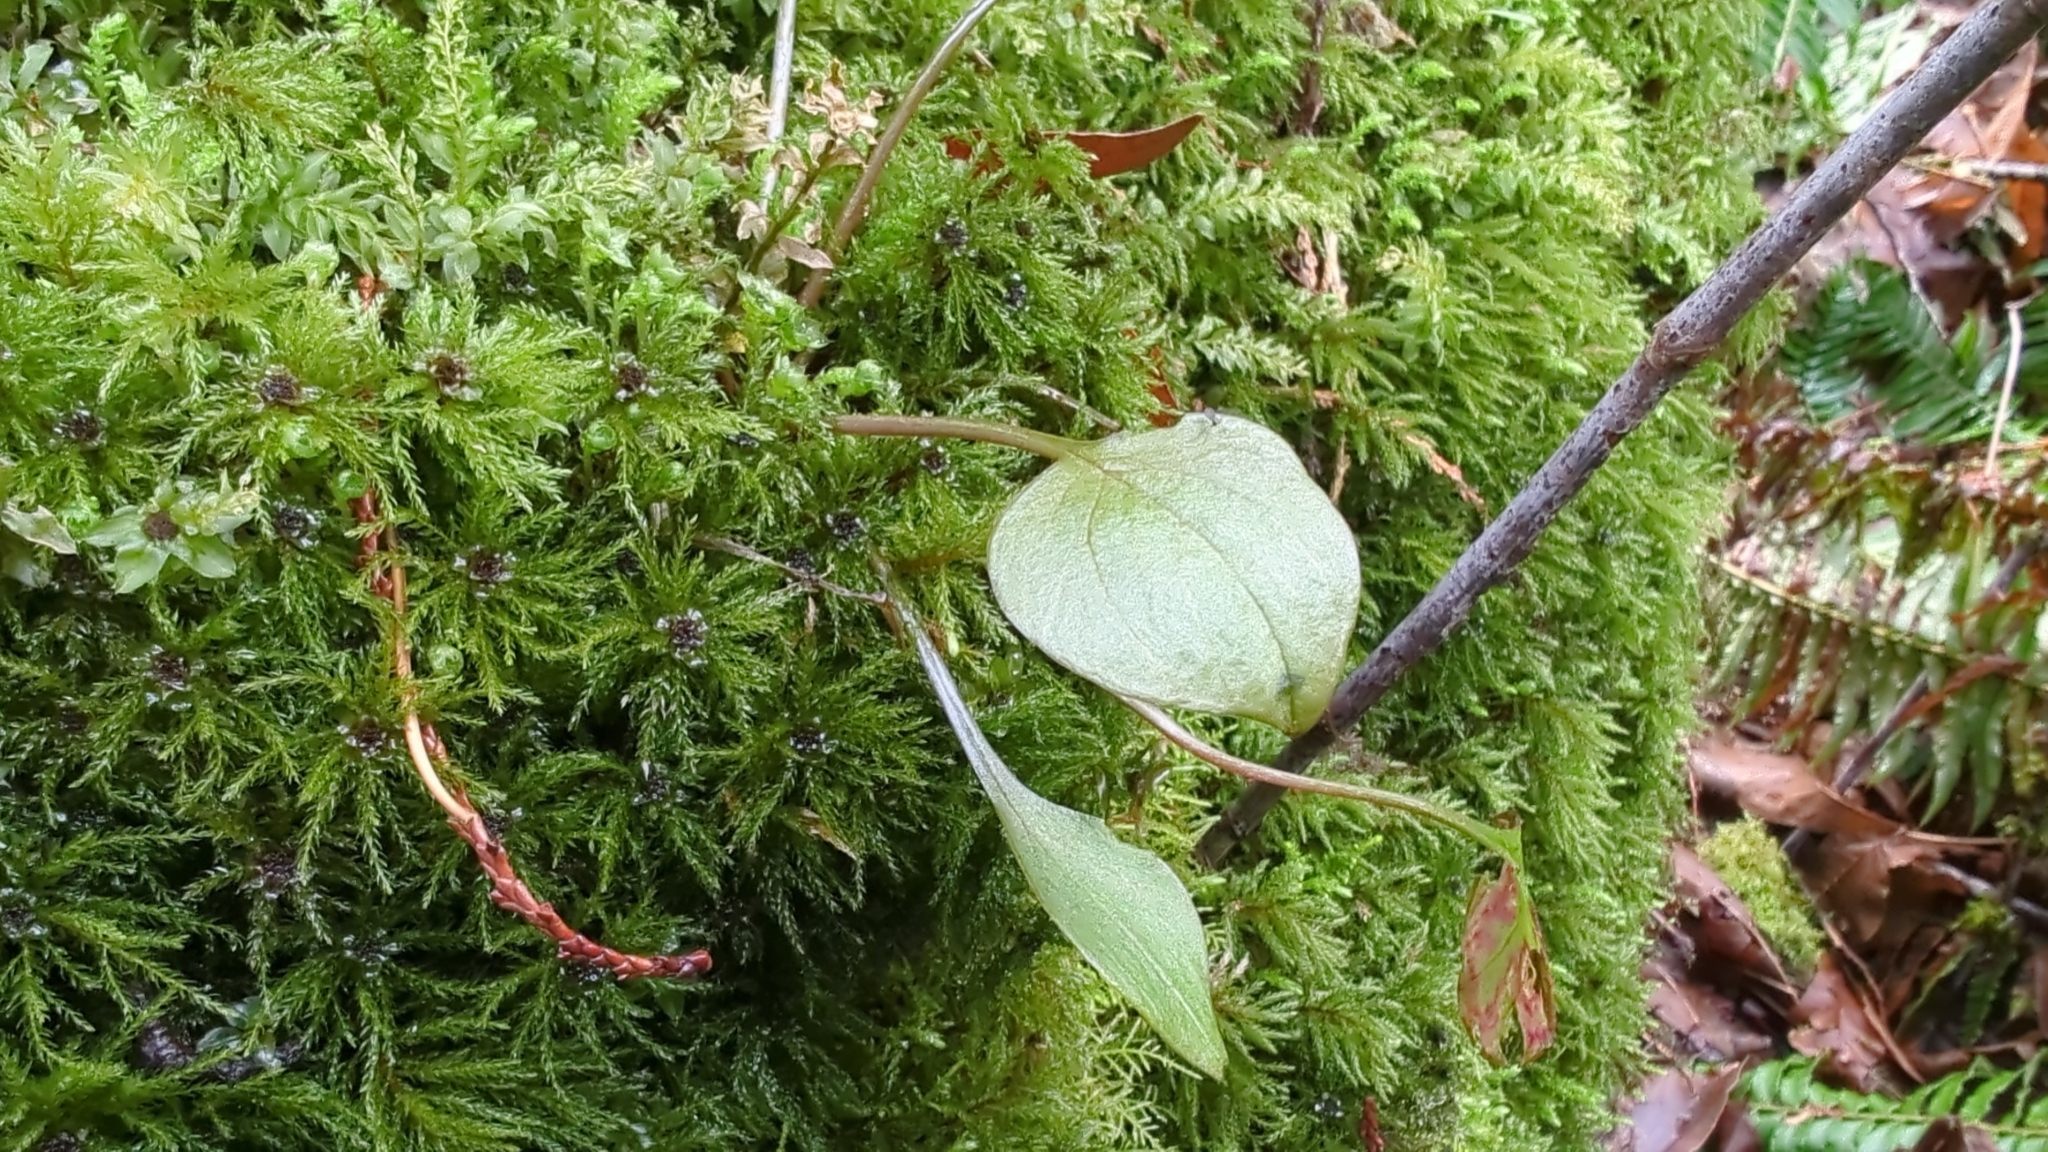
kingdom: Plantae
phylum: Tracheophyta
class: Magnoliopsida
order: Caryophyllales
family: Montiaceae
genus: Claytonia
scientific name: Claytonia sibirica
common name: Pink purslane
